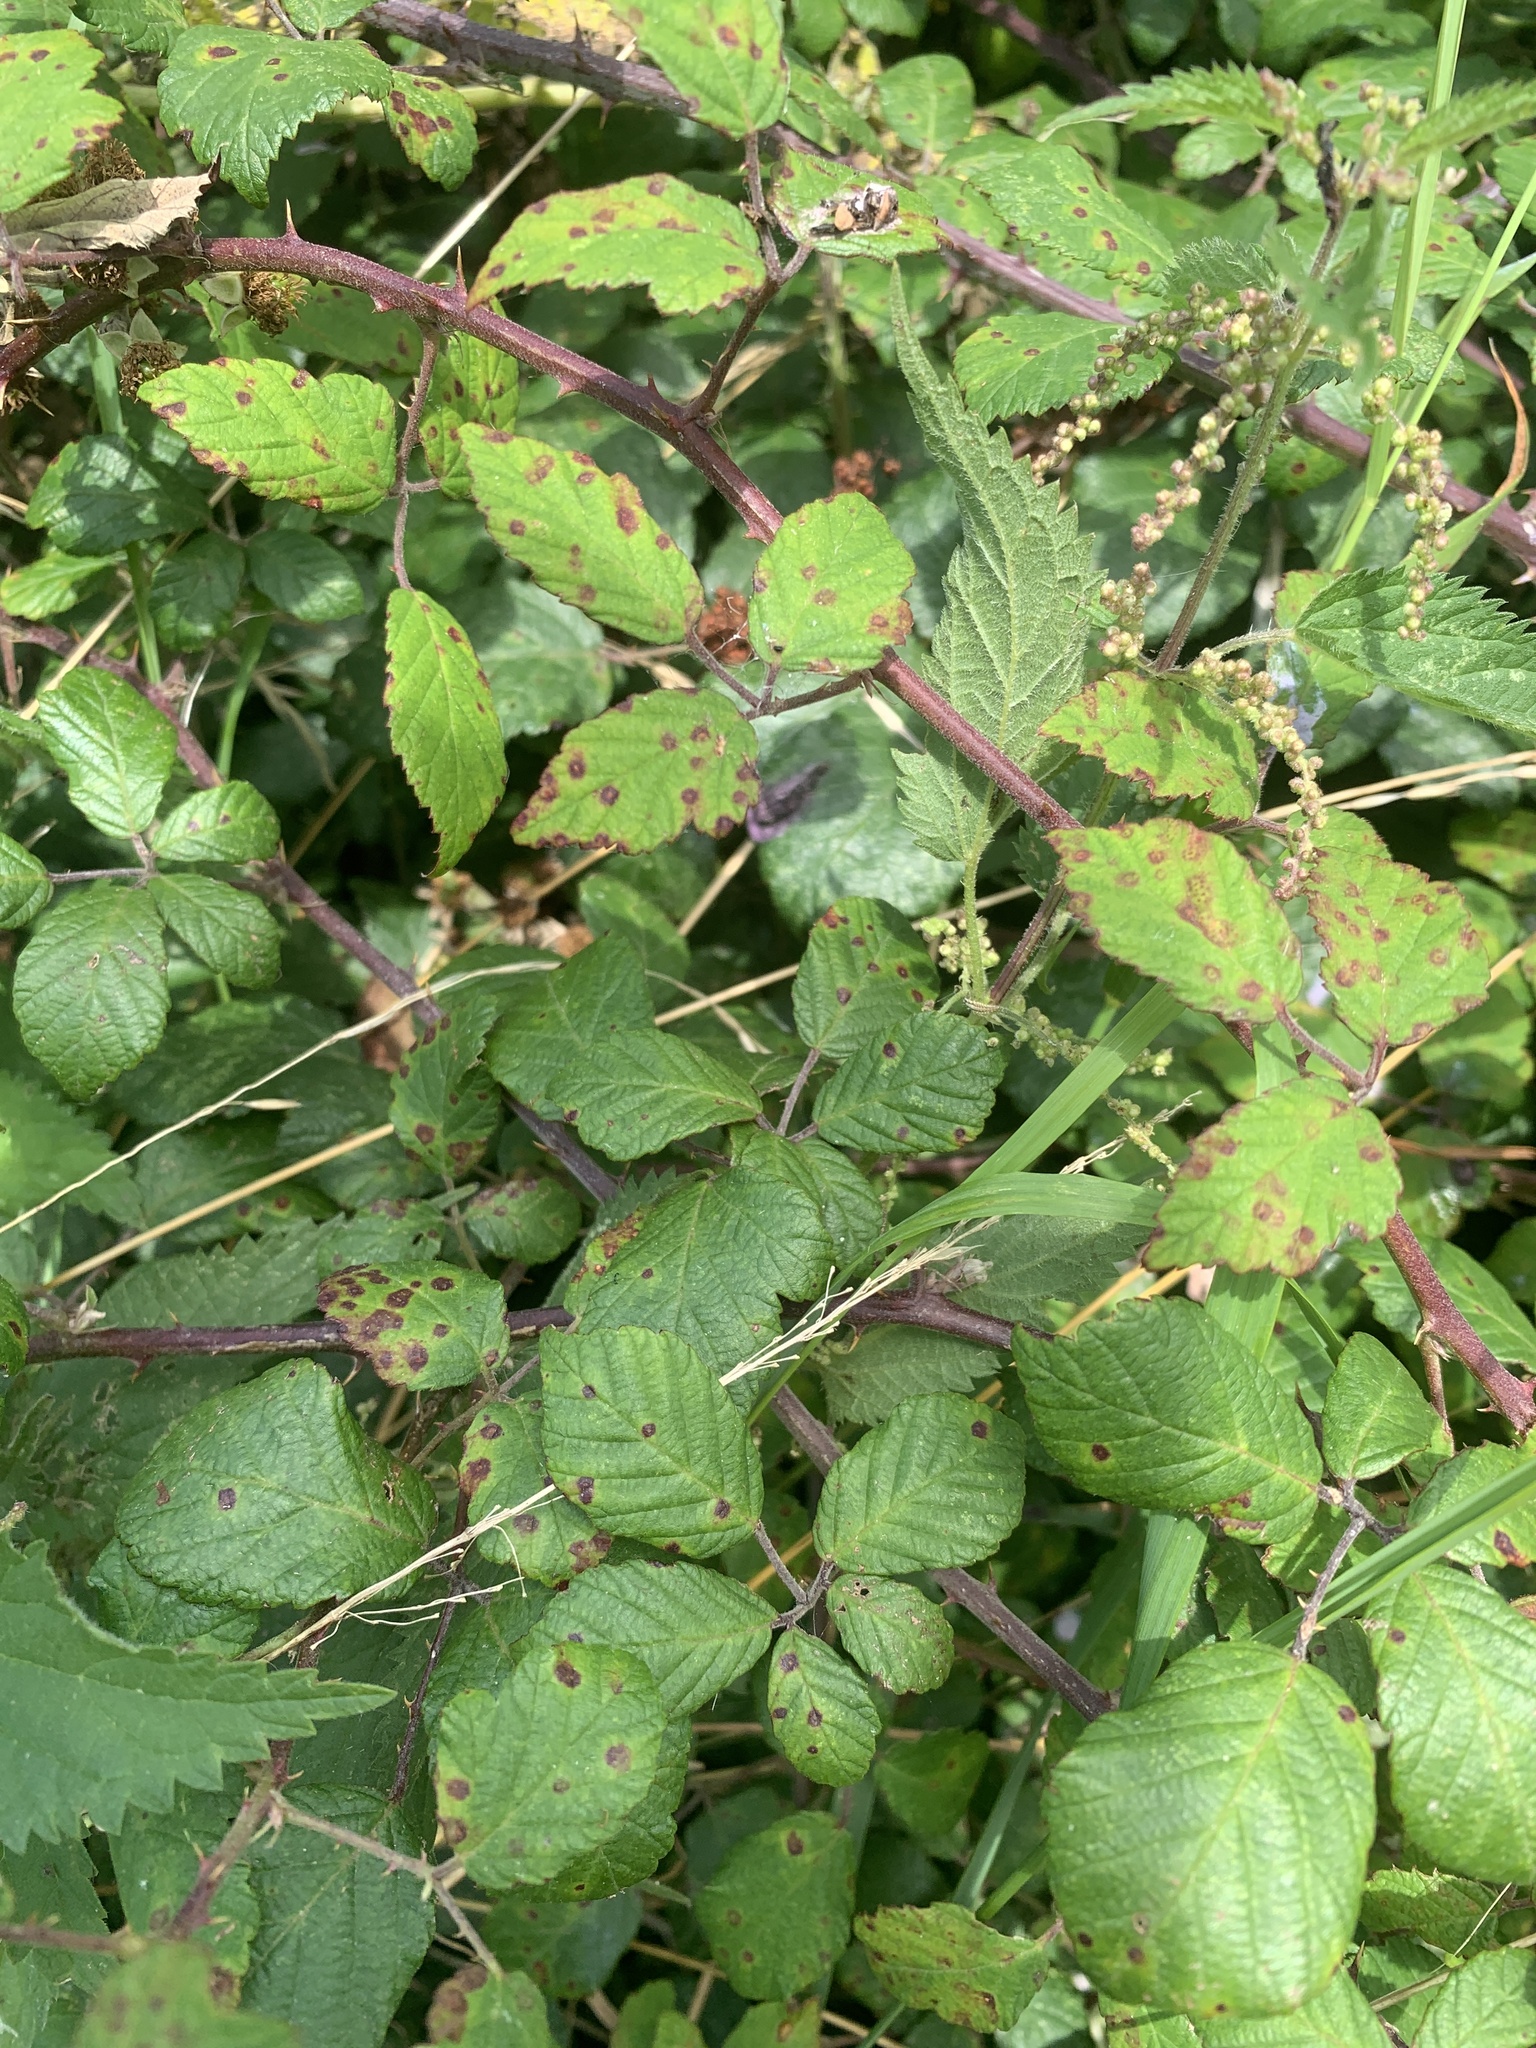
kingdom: Plantae
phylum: Tracheophyta
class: Magnoliopsida
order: Rosales
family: Rosaceae
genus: Rubus
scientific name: Rubus fruticosus
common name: Blackberry, bramble
